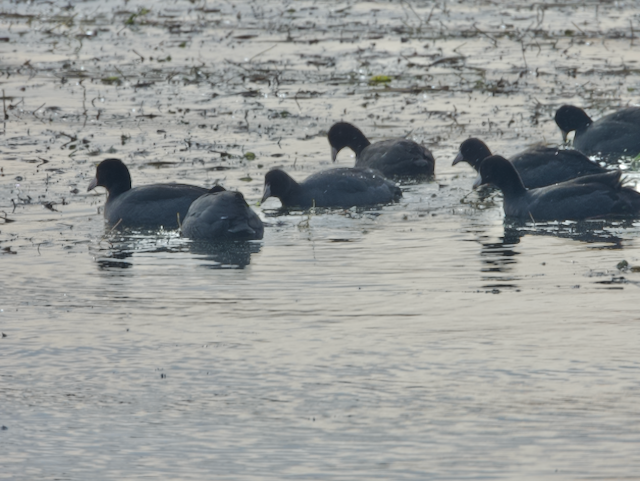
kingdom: Animalia
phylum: Chordata
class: Aves
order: Gruiformes
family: Rallidae
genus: Fulica
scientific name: Fulica americana
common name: American coot
